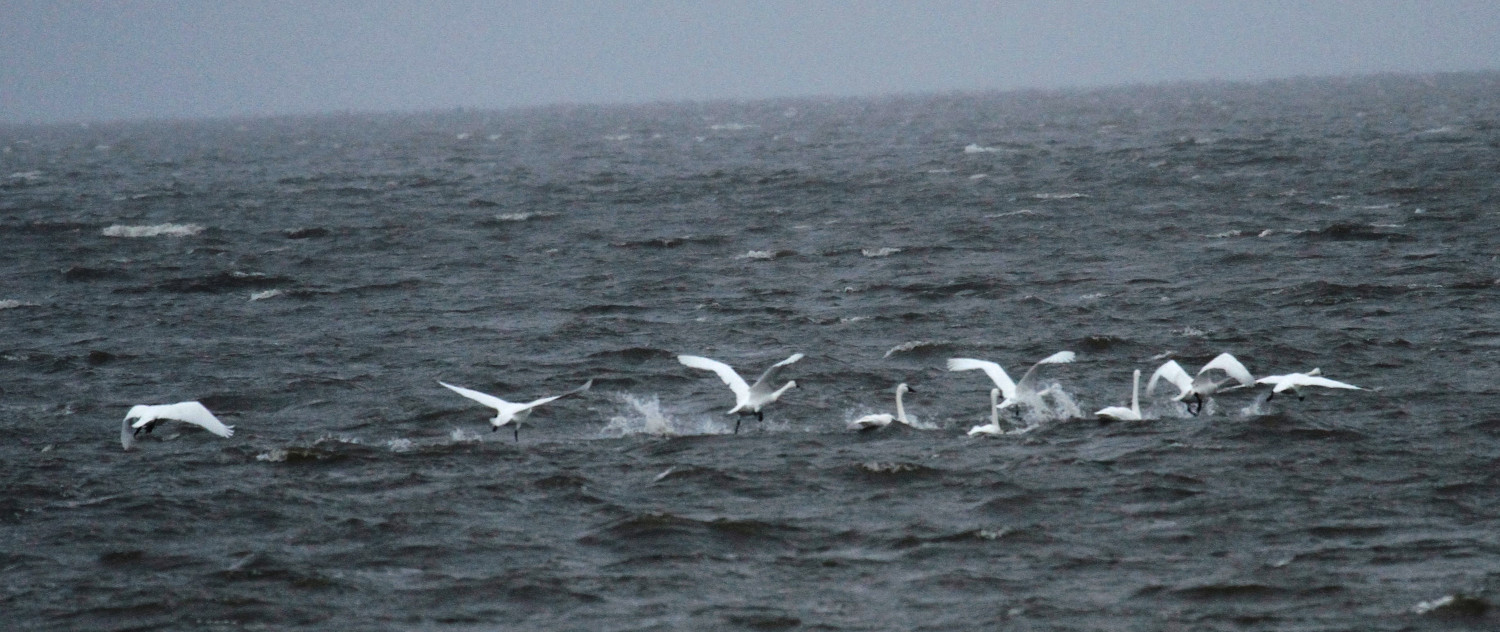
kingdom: Animalia
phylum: Chordata
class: Aves
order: Anseriformes
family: Anatidae
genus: Cygnus
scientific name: Cygnus columbianus
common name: Tundra swan
